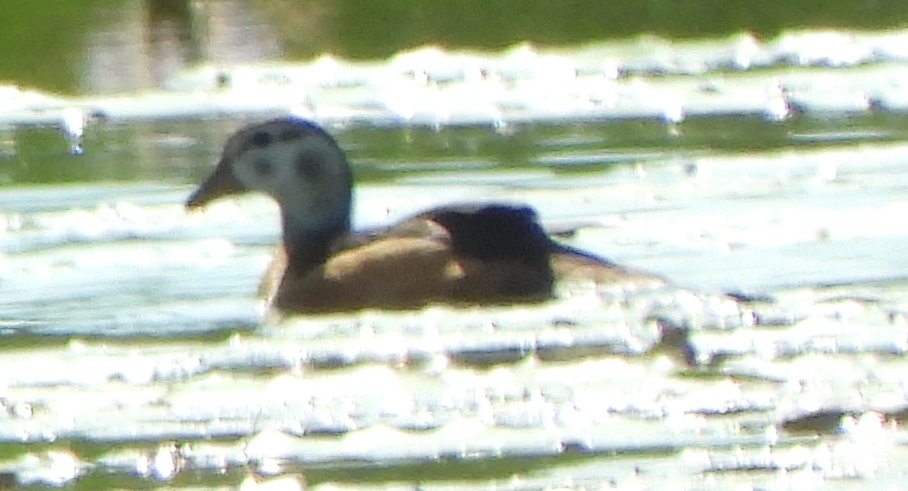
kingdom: Animalia
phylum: Chordata
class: Aves
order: Anseriformes
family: Anatidae
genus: Nettapus
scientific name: Nettapus auritus
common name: African pygmy-goose
